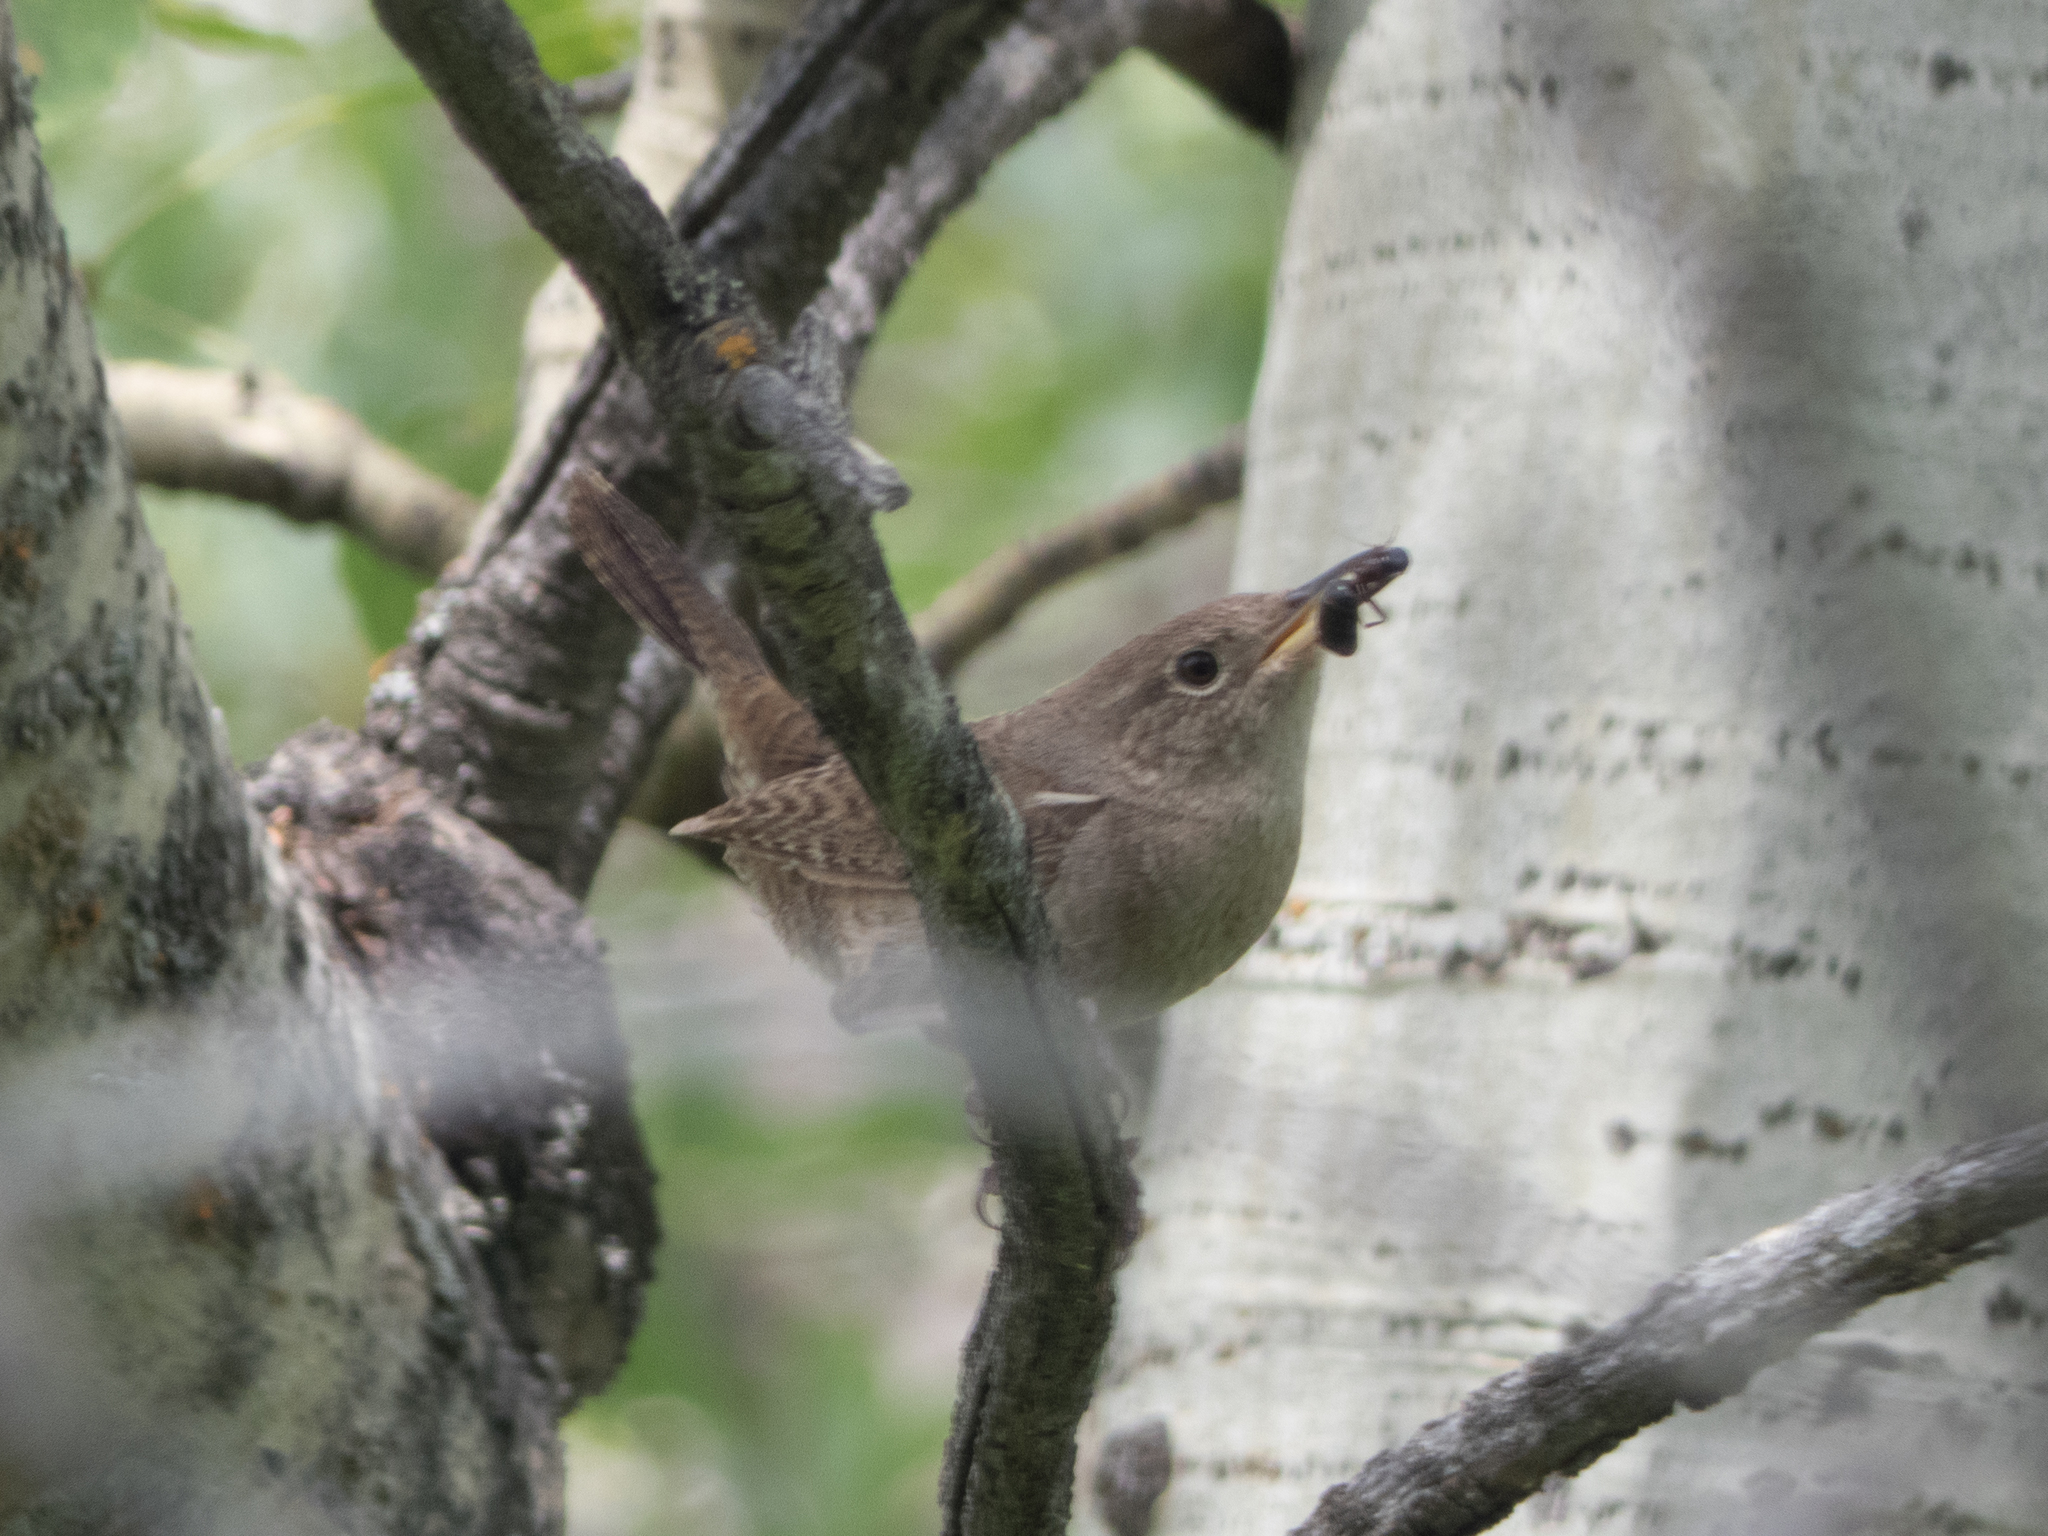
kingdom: Animalia
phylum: Chordata
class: Aves
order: Passeriformes
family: Troglodytidae
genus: Troglodytes
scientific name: Troglodytes aedon
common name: House wren
